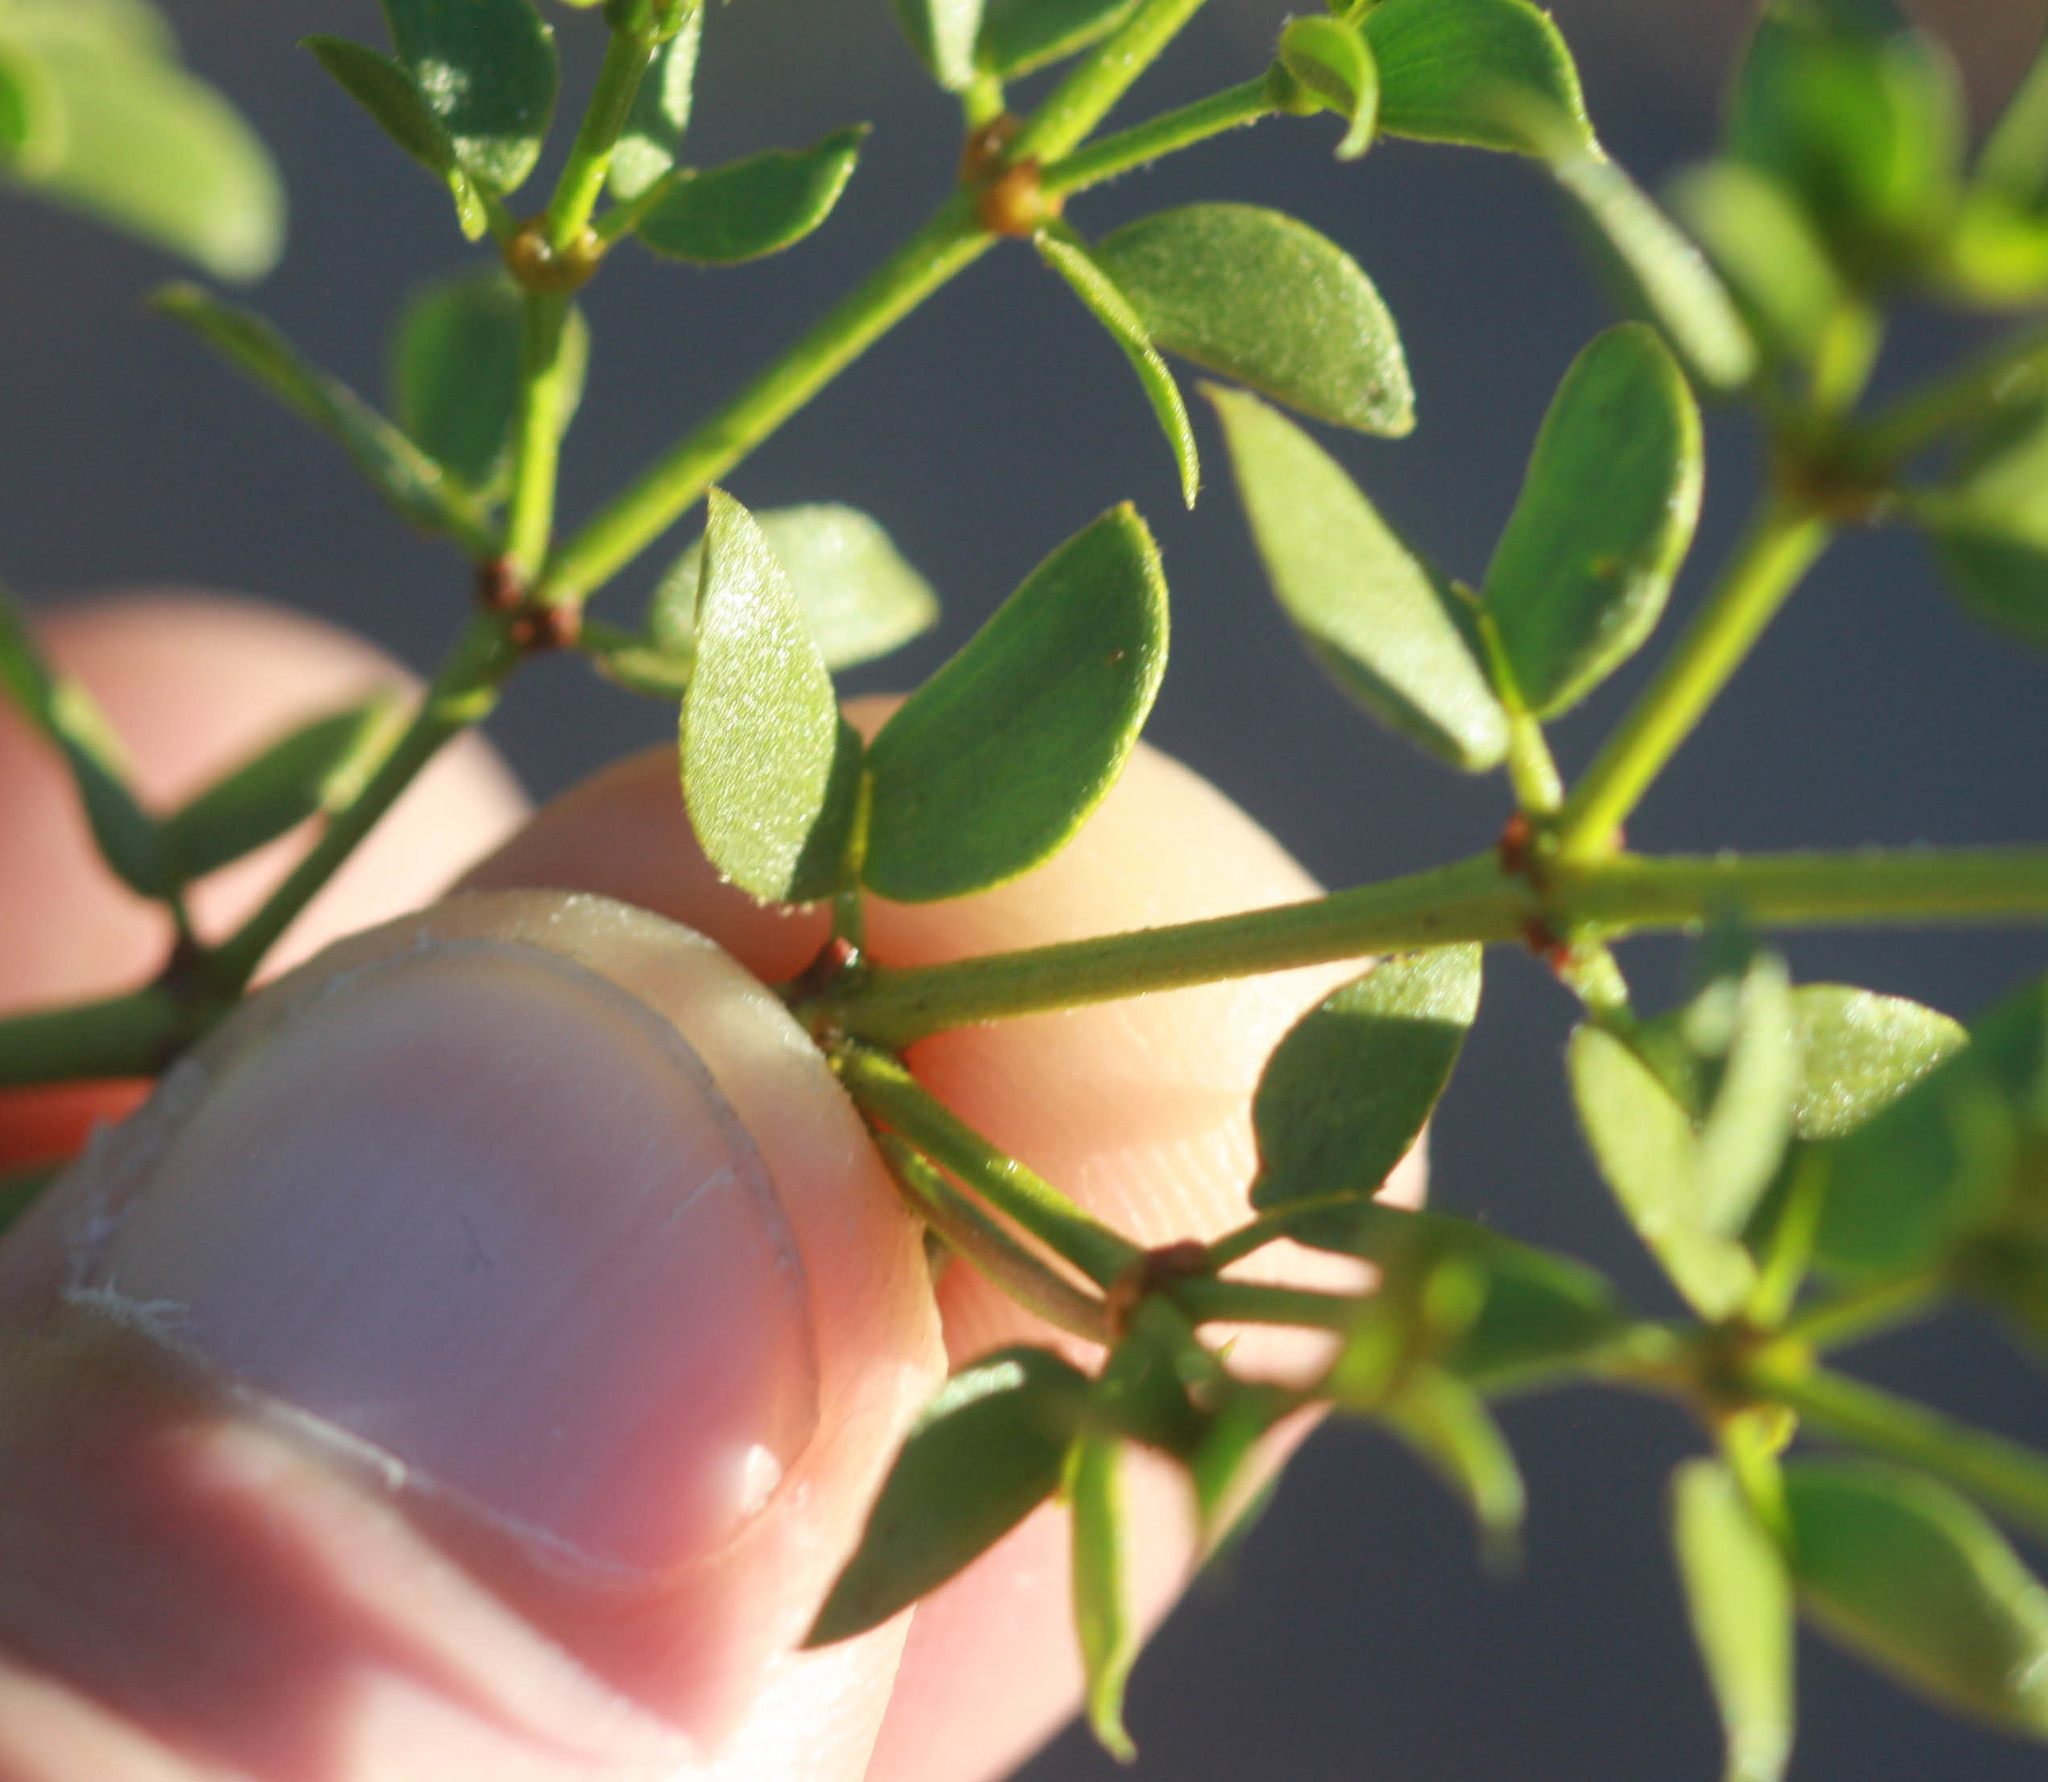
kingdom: Plantae
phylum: Tracheophyta
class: Magnoliopsida
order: Zygophyllales
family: Zygophyllaceae
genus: Larrea
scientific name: Larrea tridentata
